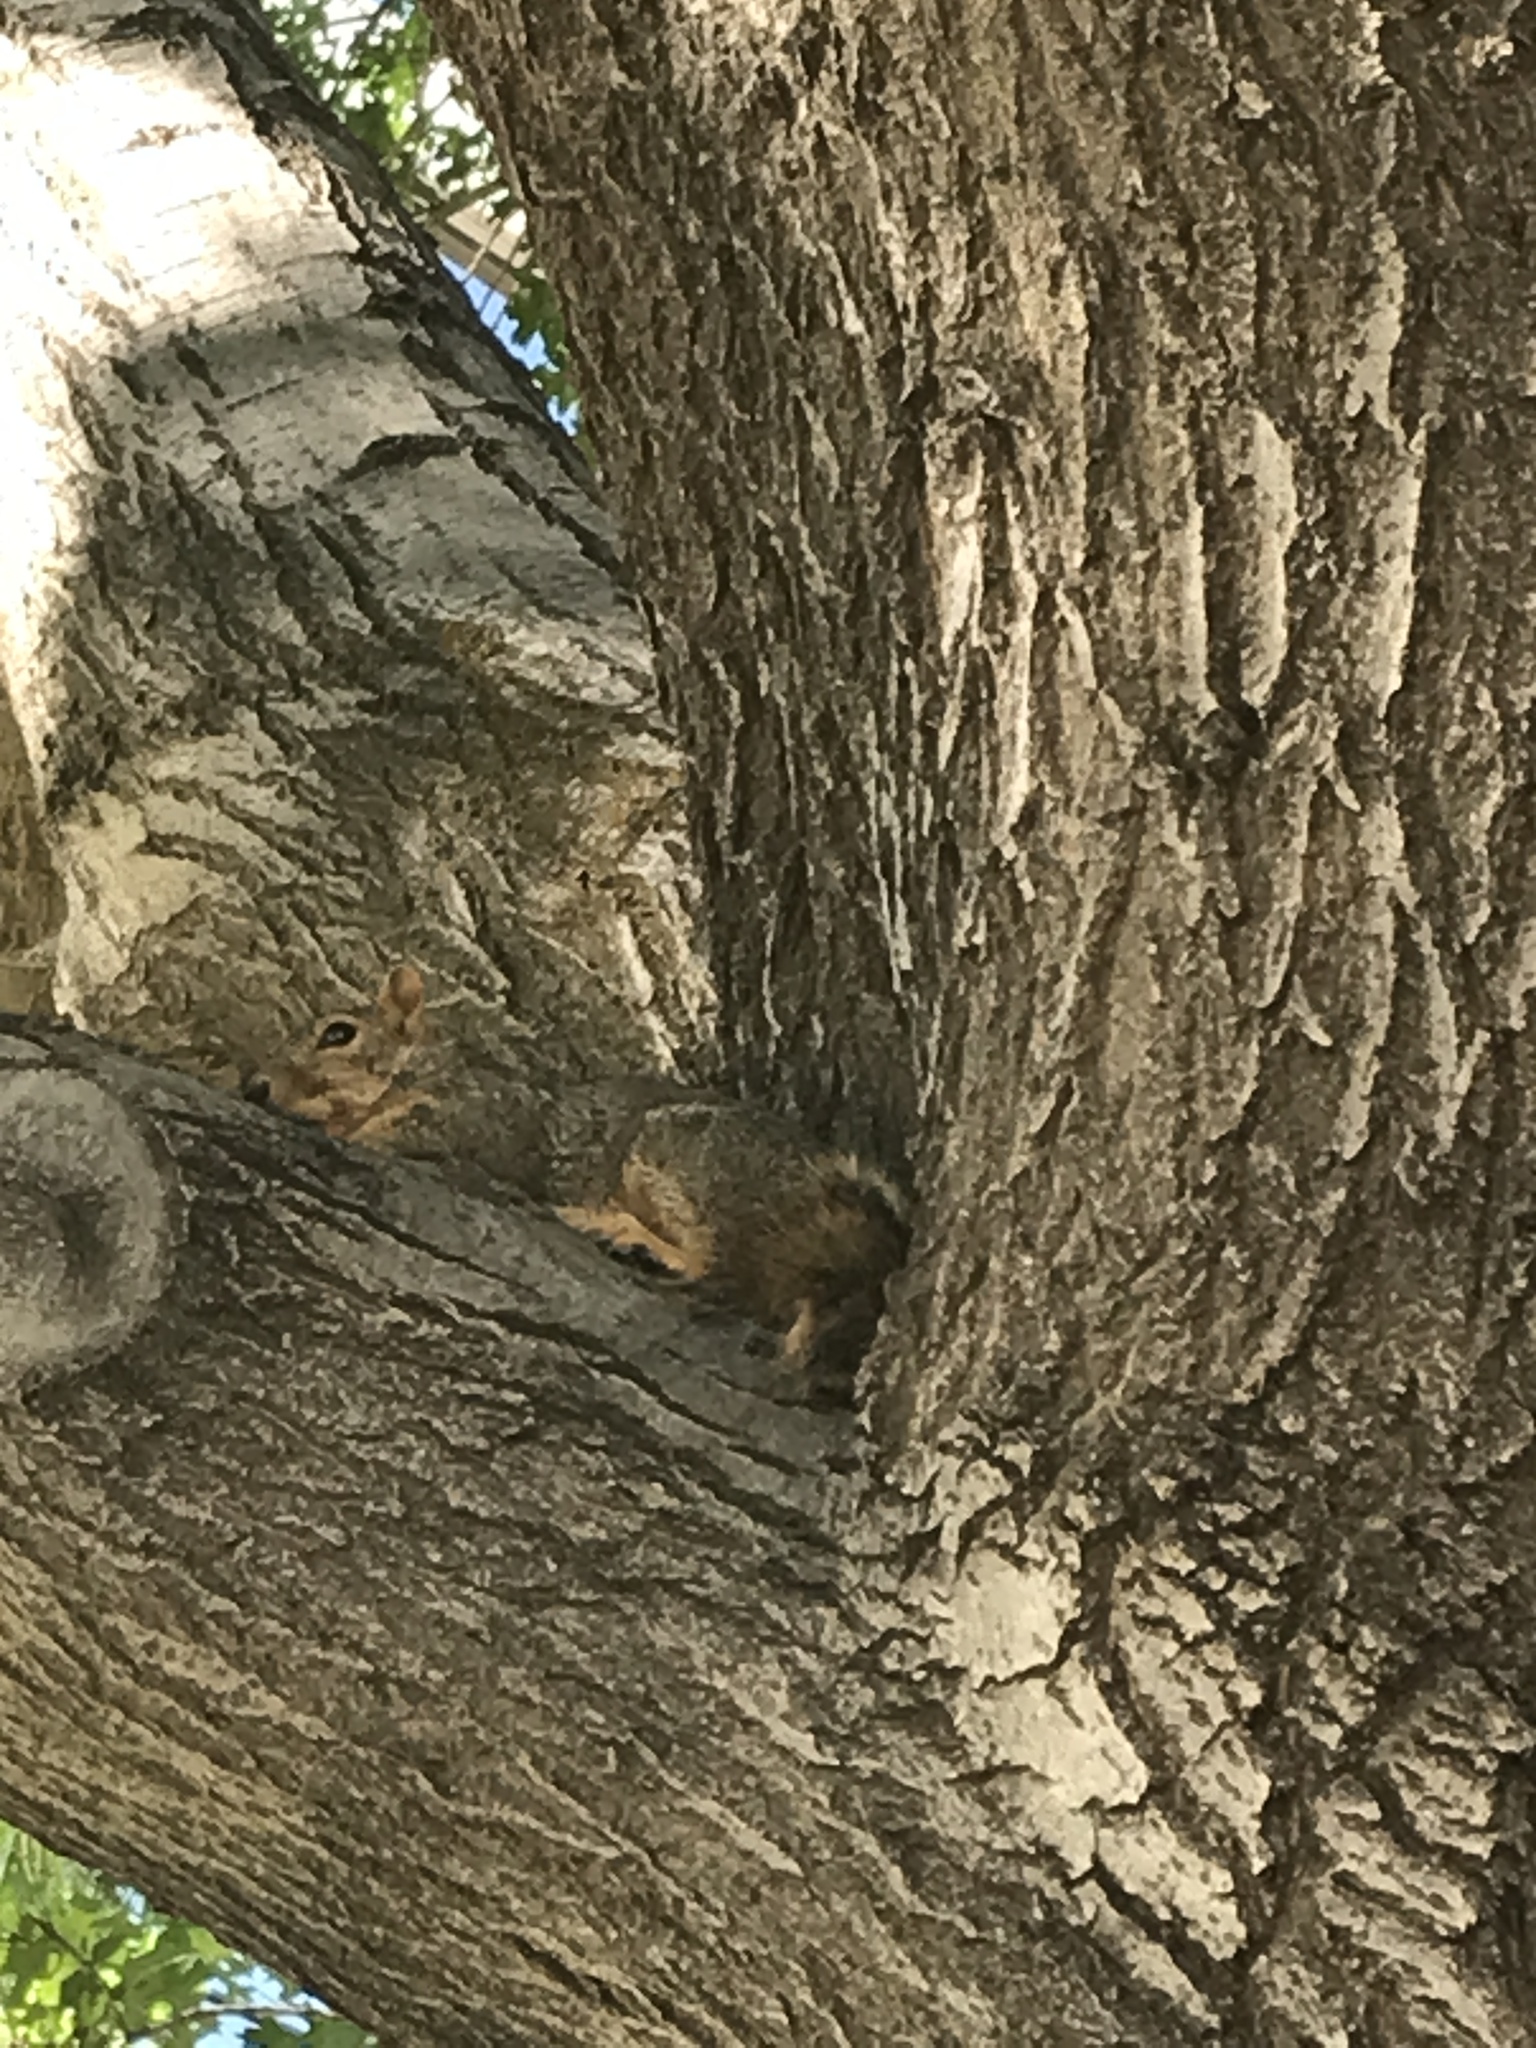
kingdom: Animalia
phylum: Chordata
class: Mammalia
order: Rodentia
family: Sciuridae
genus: Sciurus
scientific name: Sciurus niger
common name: Fox squirrel
